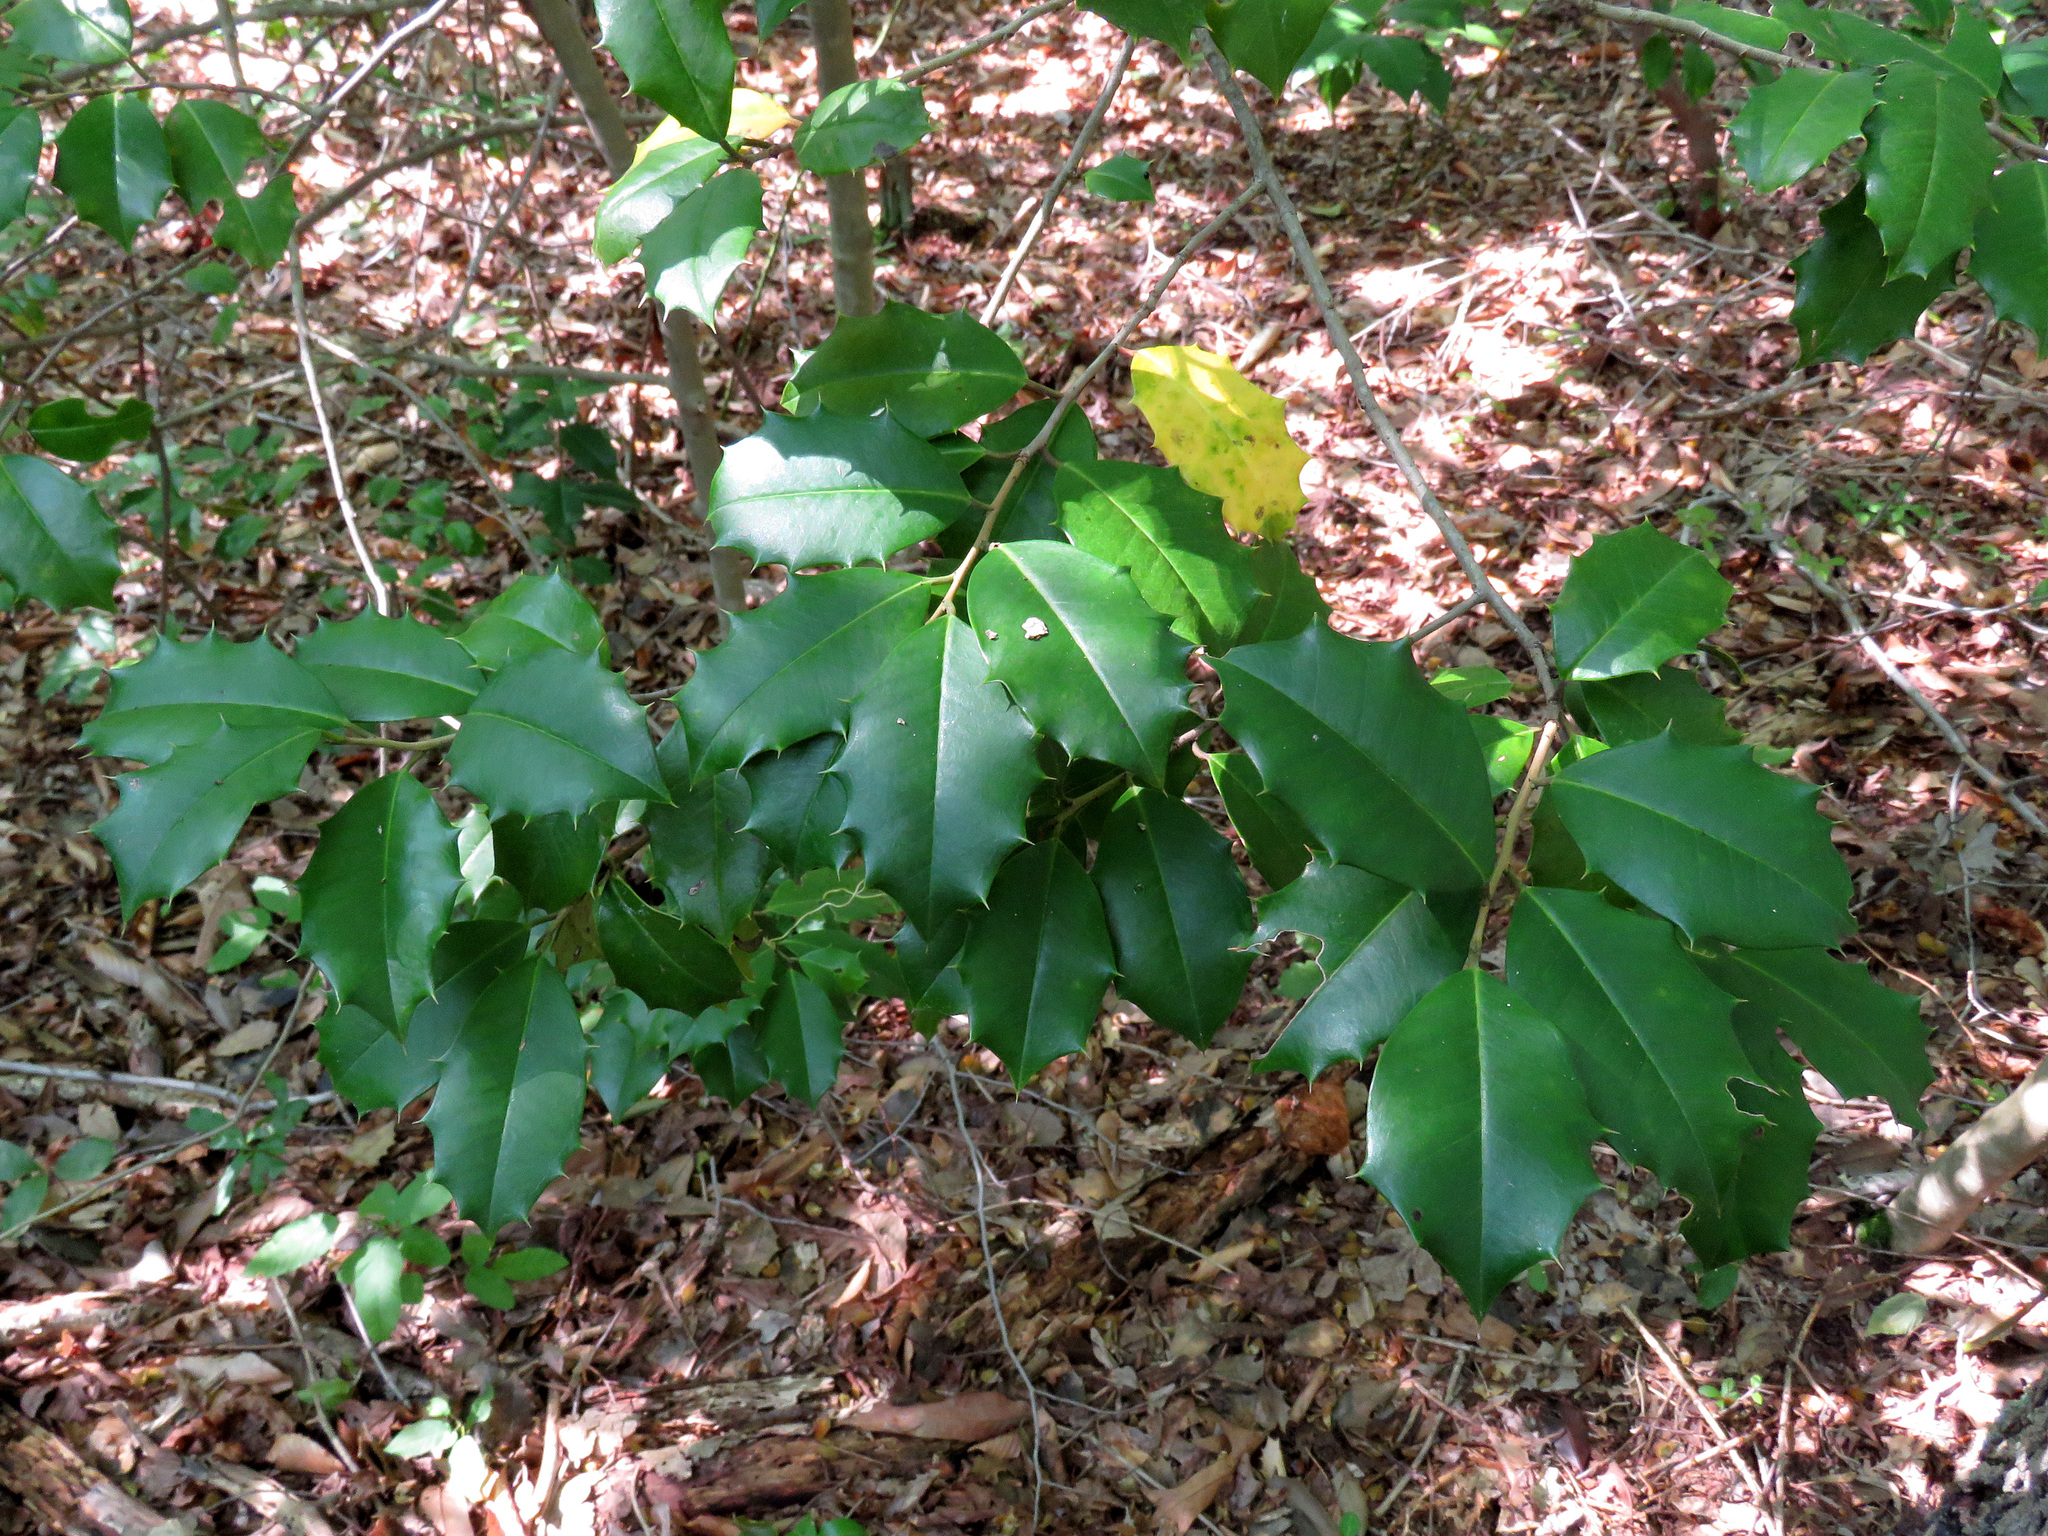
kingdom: Plantae
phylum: Tracheophyta
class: Magnoliopsida
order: Aquifoliales
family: Aquifoliaceae
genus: Ilex
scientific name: Ilex opaca
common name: American holly
